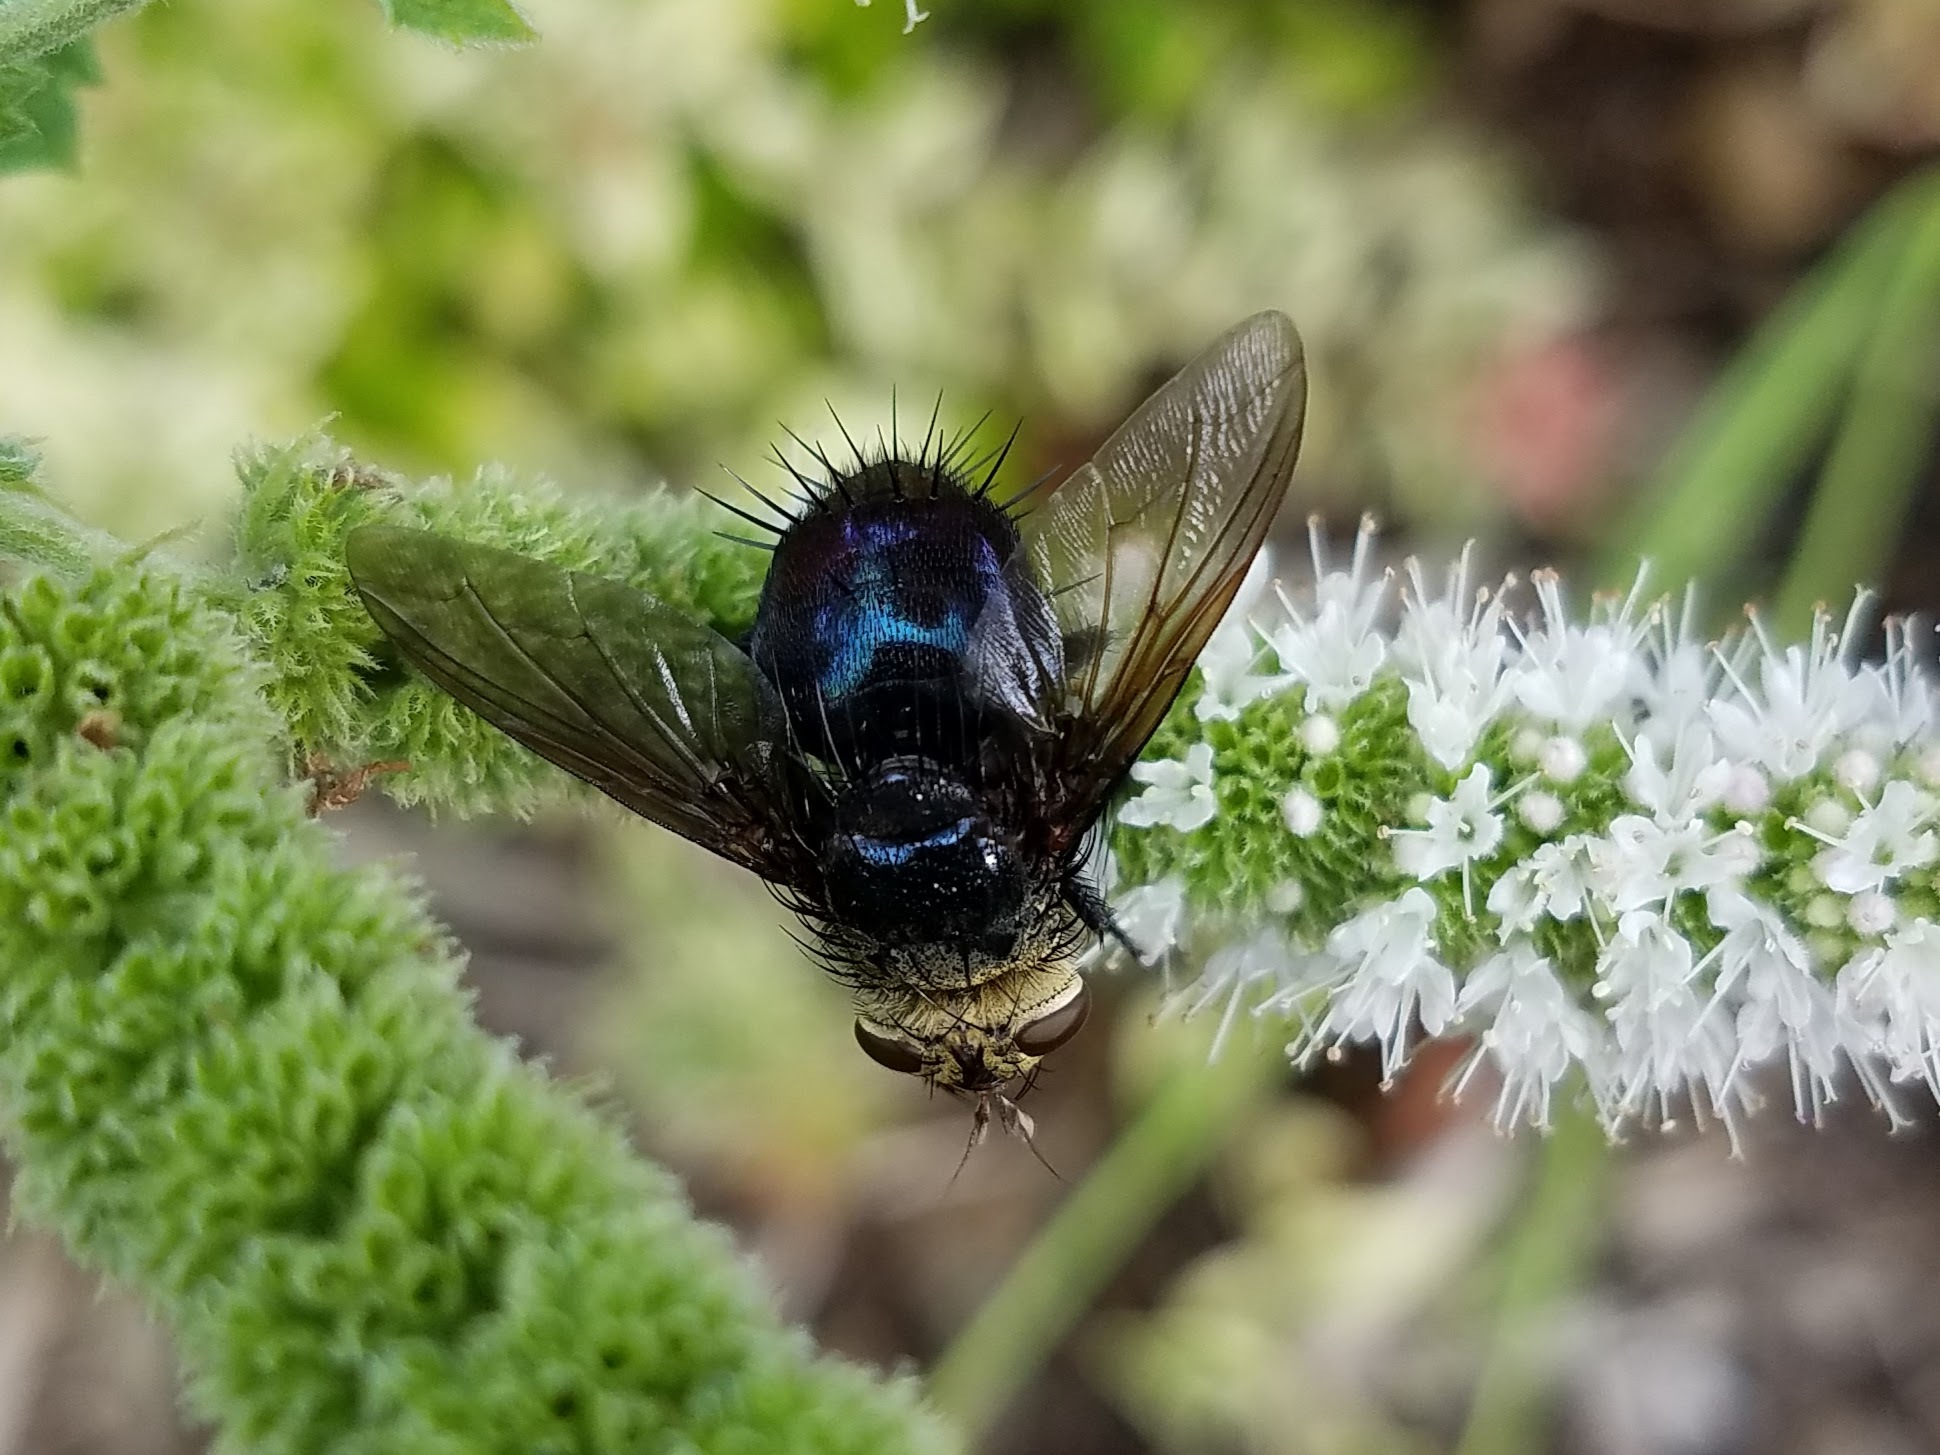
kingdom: Animalia
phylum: Arthropoda
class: Insecta
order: Diptera
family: Tachinidae
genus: Archytas
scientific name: Archytas metallicus
